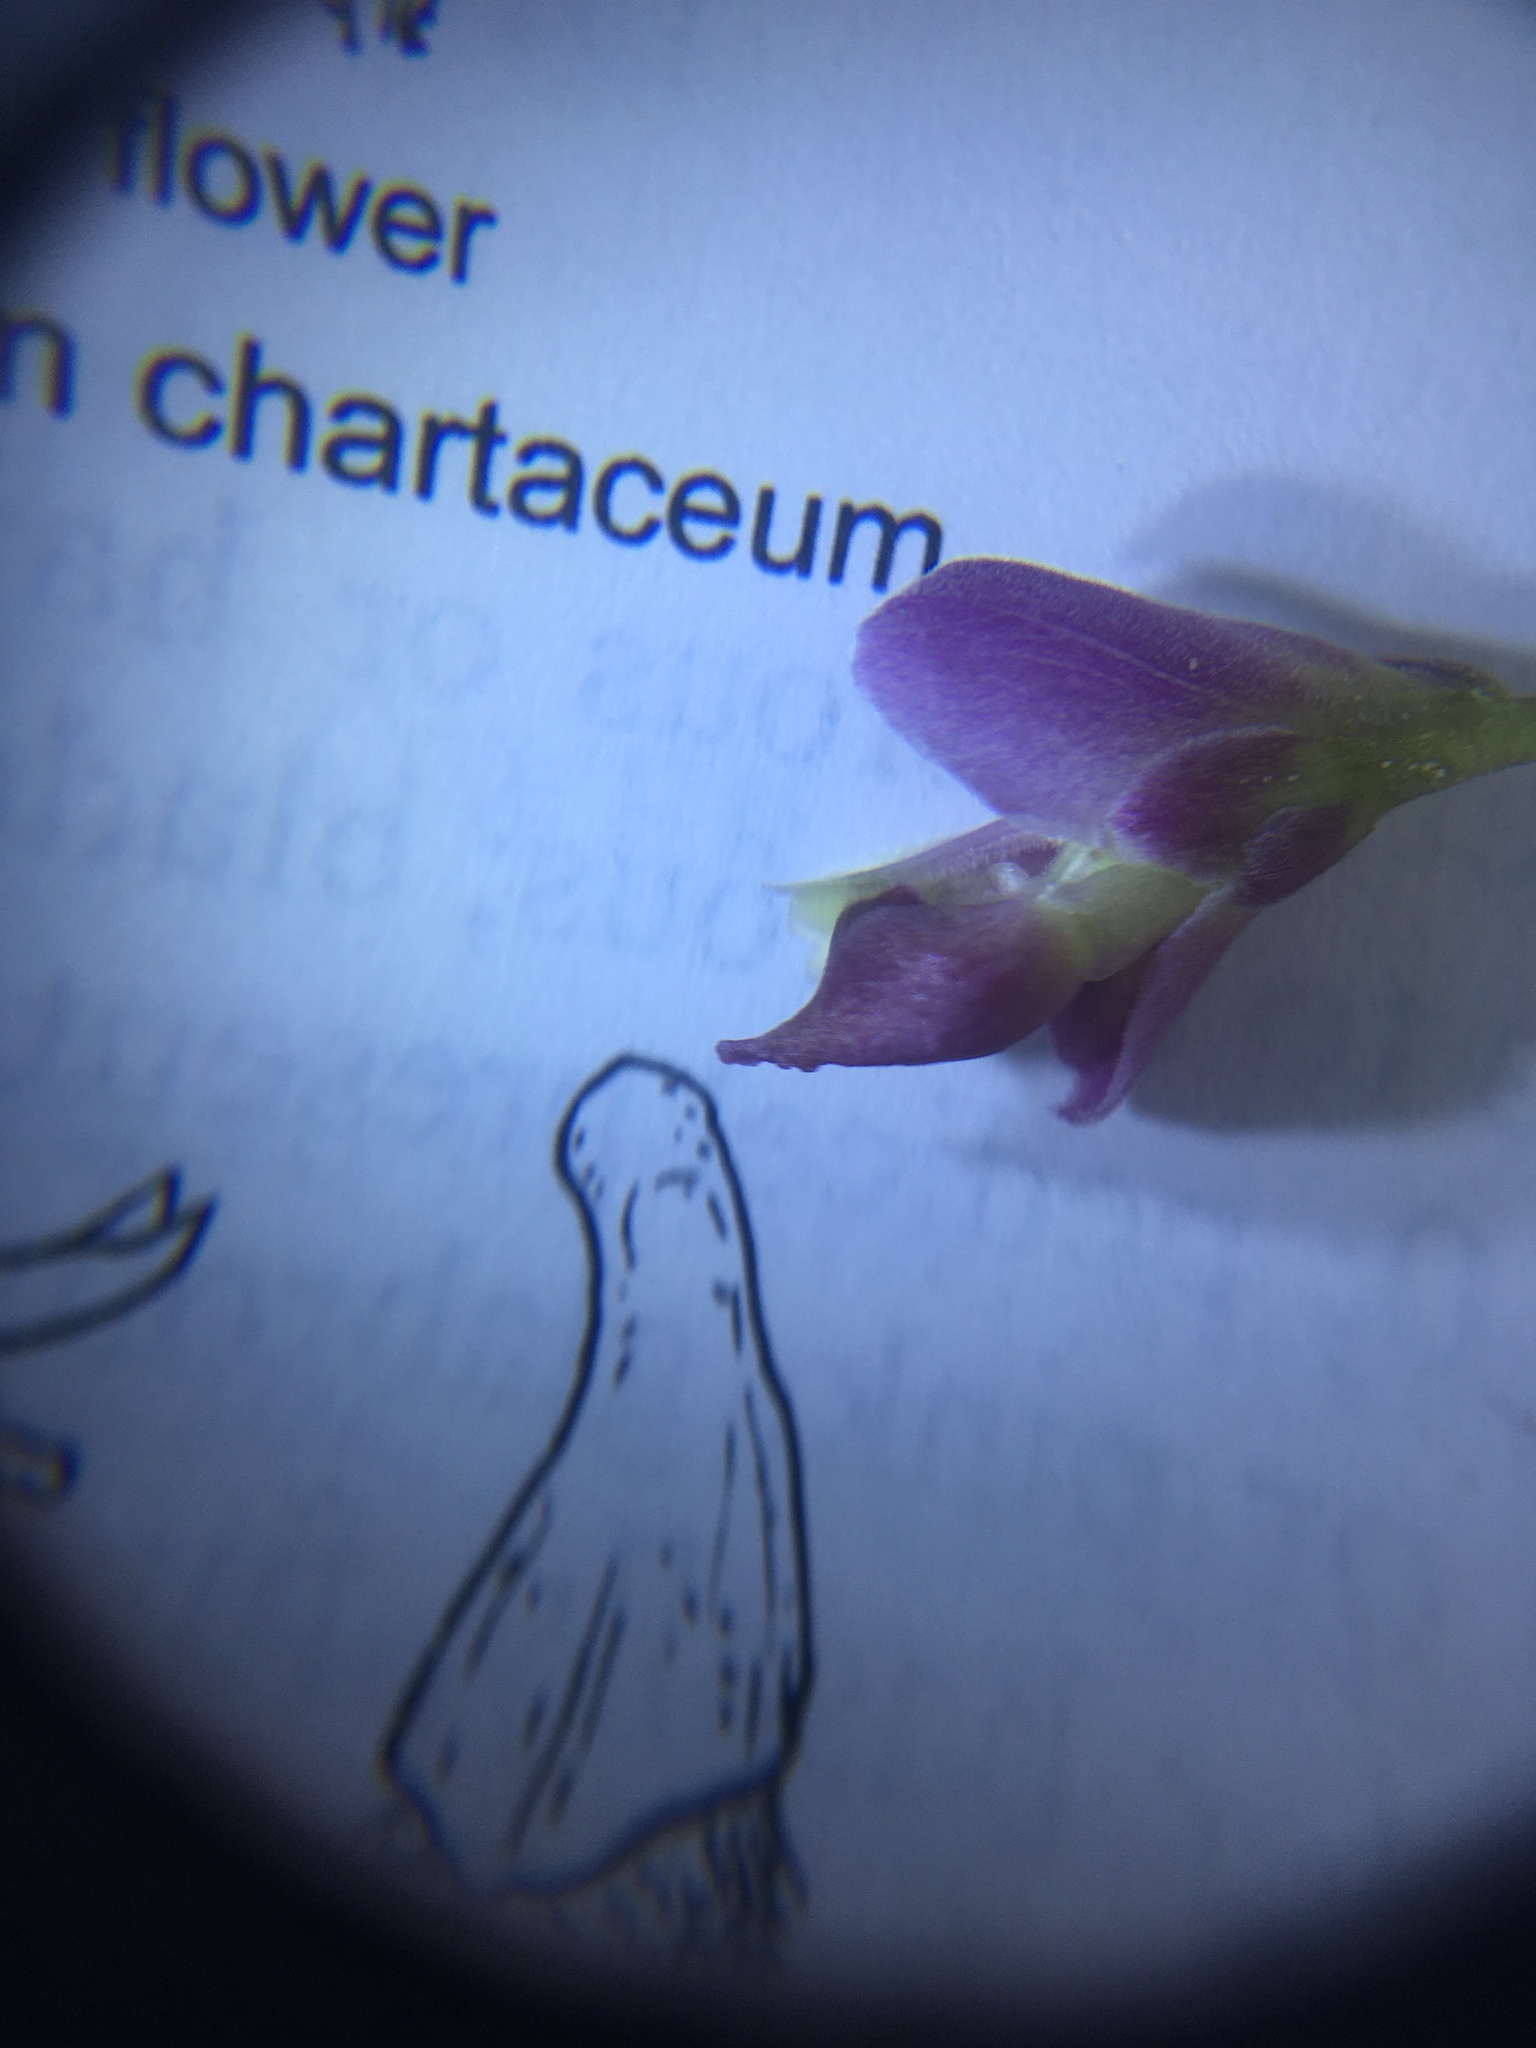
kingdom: Plantae
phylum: Tracheophyta
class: Magnoliopsida
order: Fabales
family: Polygalaceae
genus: Rhinotropis
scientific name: Rhinotropis cornuta
